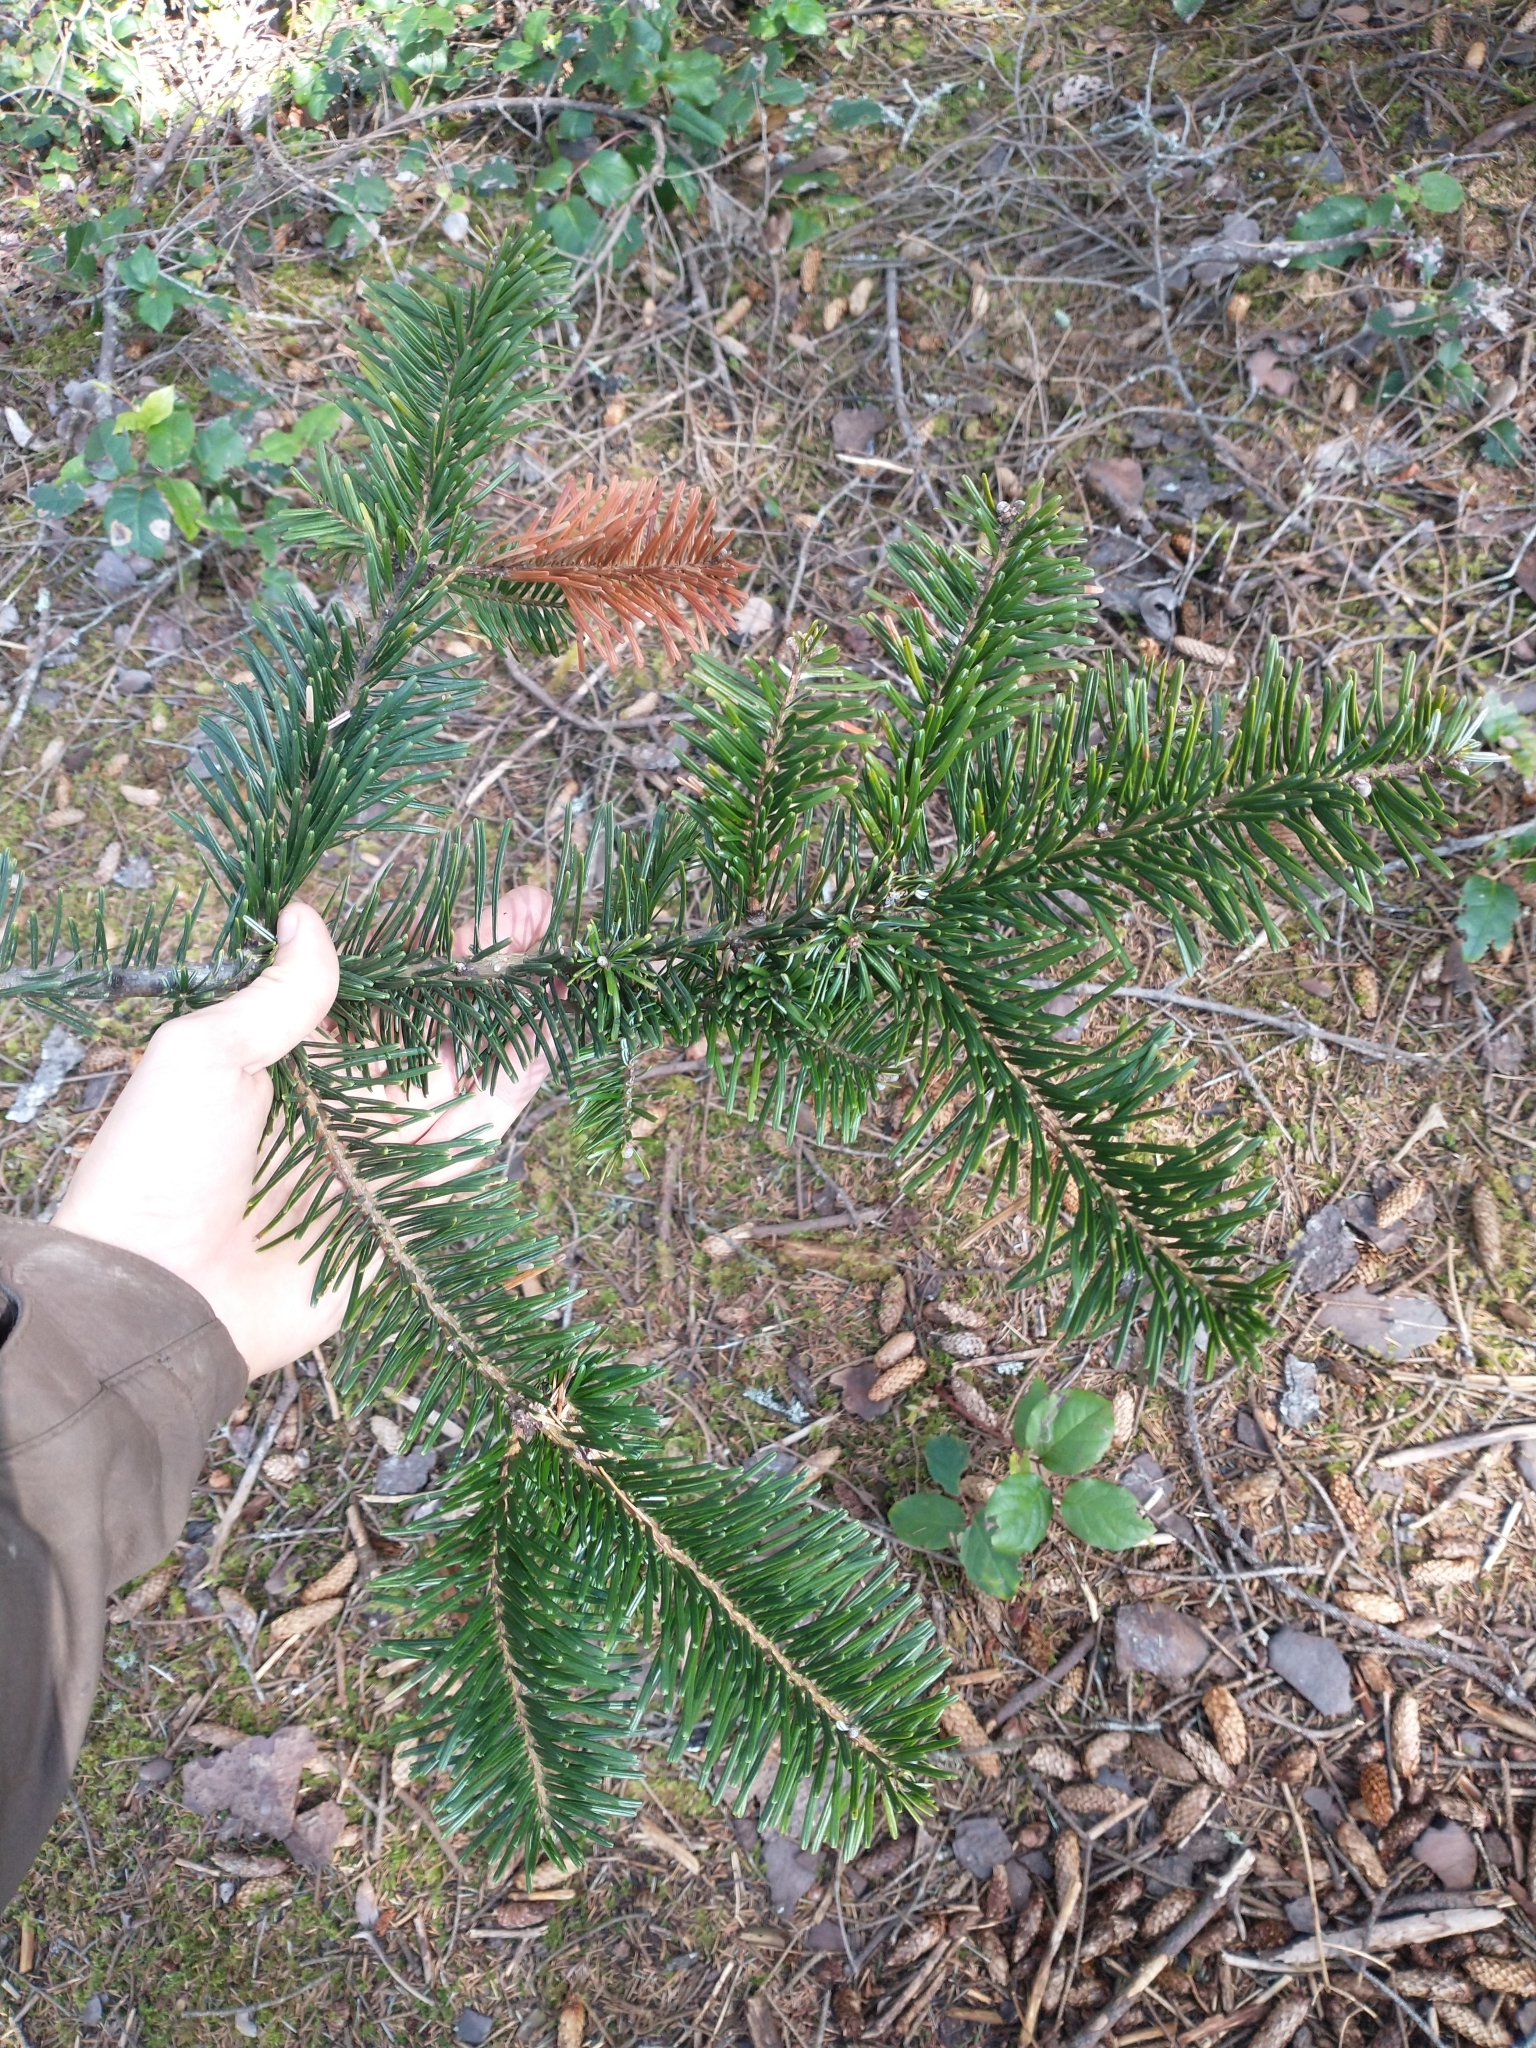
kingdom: Plantae
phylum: Tracheophyta
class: Pinopsida
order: Pinales
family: Pinaceae
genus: Abies
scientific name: Abies grandis
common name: Giant fir
